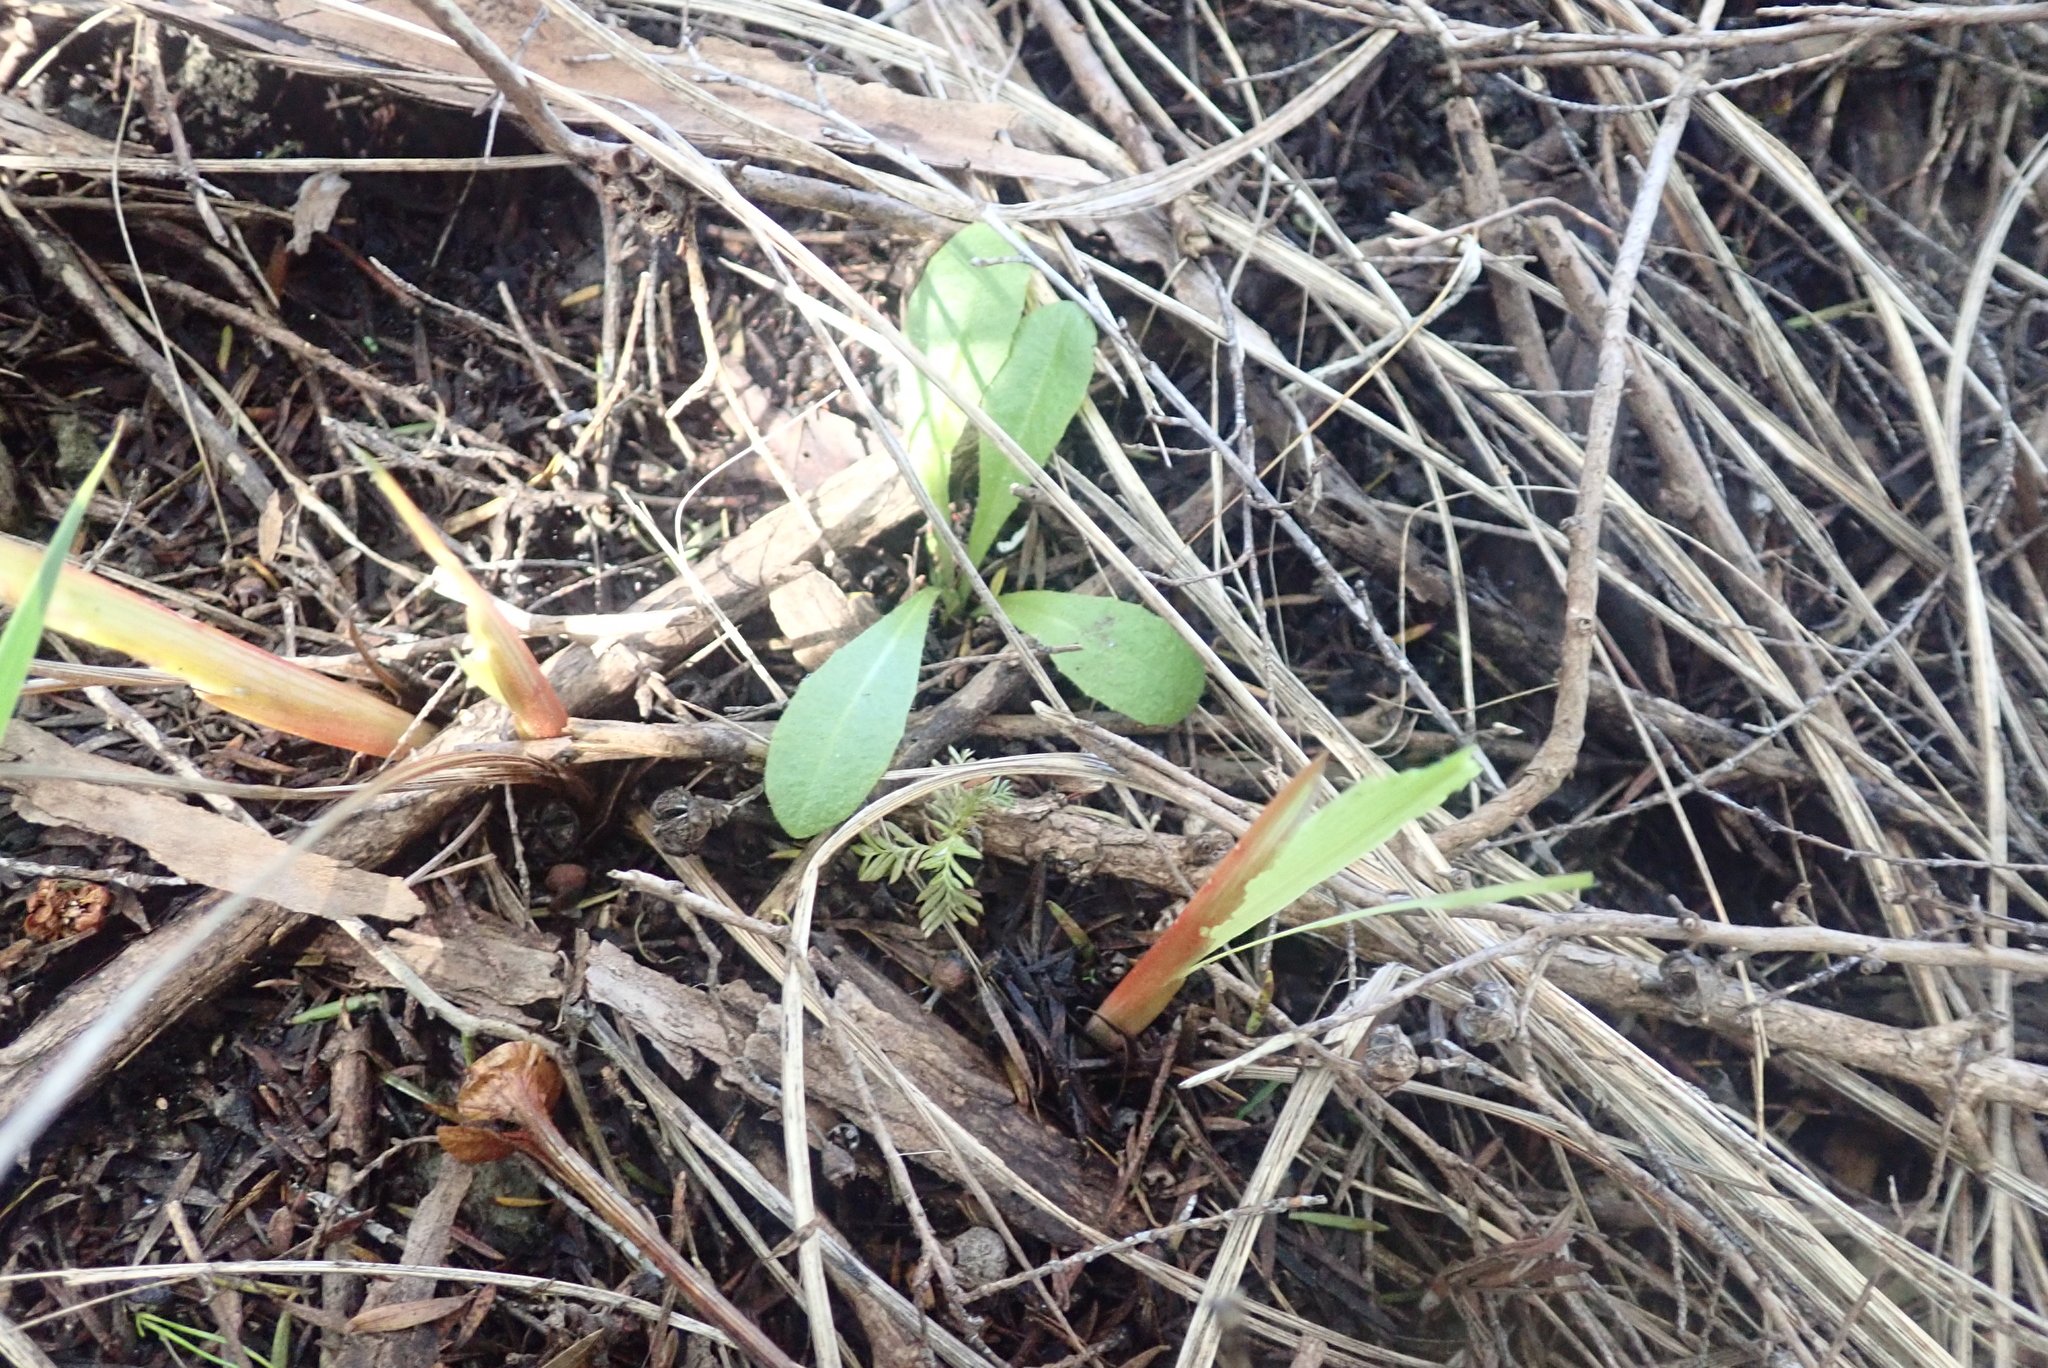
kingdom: Plantae
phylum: Tracheophyta
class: Pinopsida
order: Pinales
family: Podocarpaceae
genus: Dacrycarpus
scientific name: Dacrycarpus dacrydioides
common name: White pine
